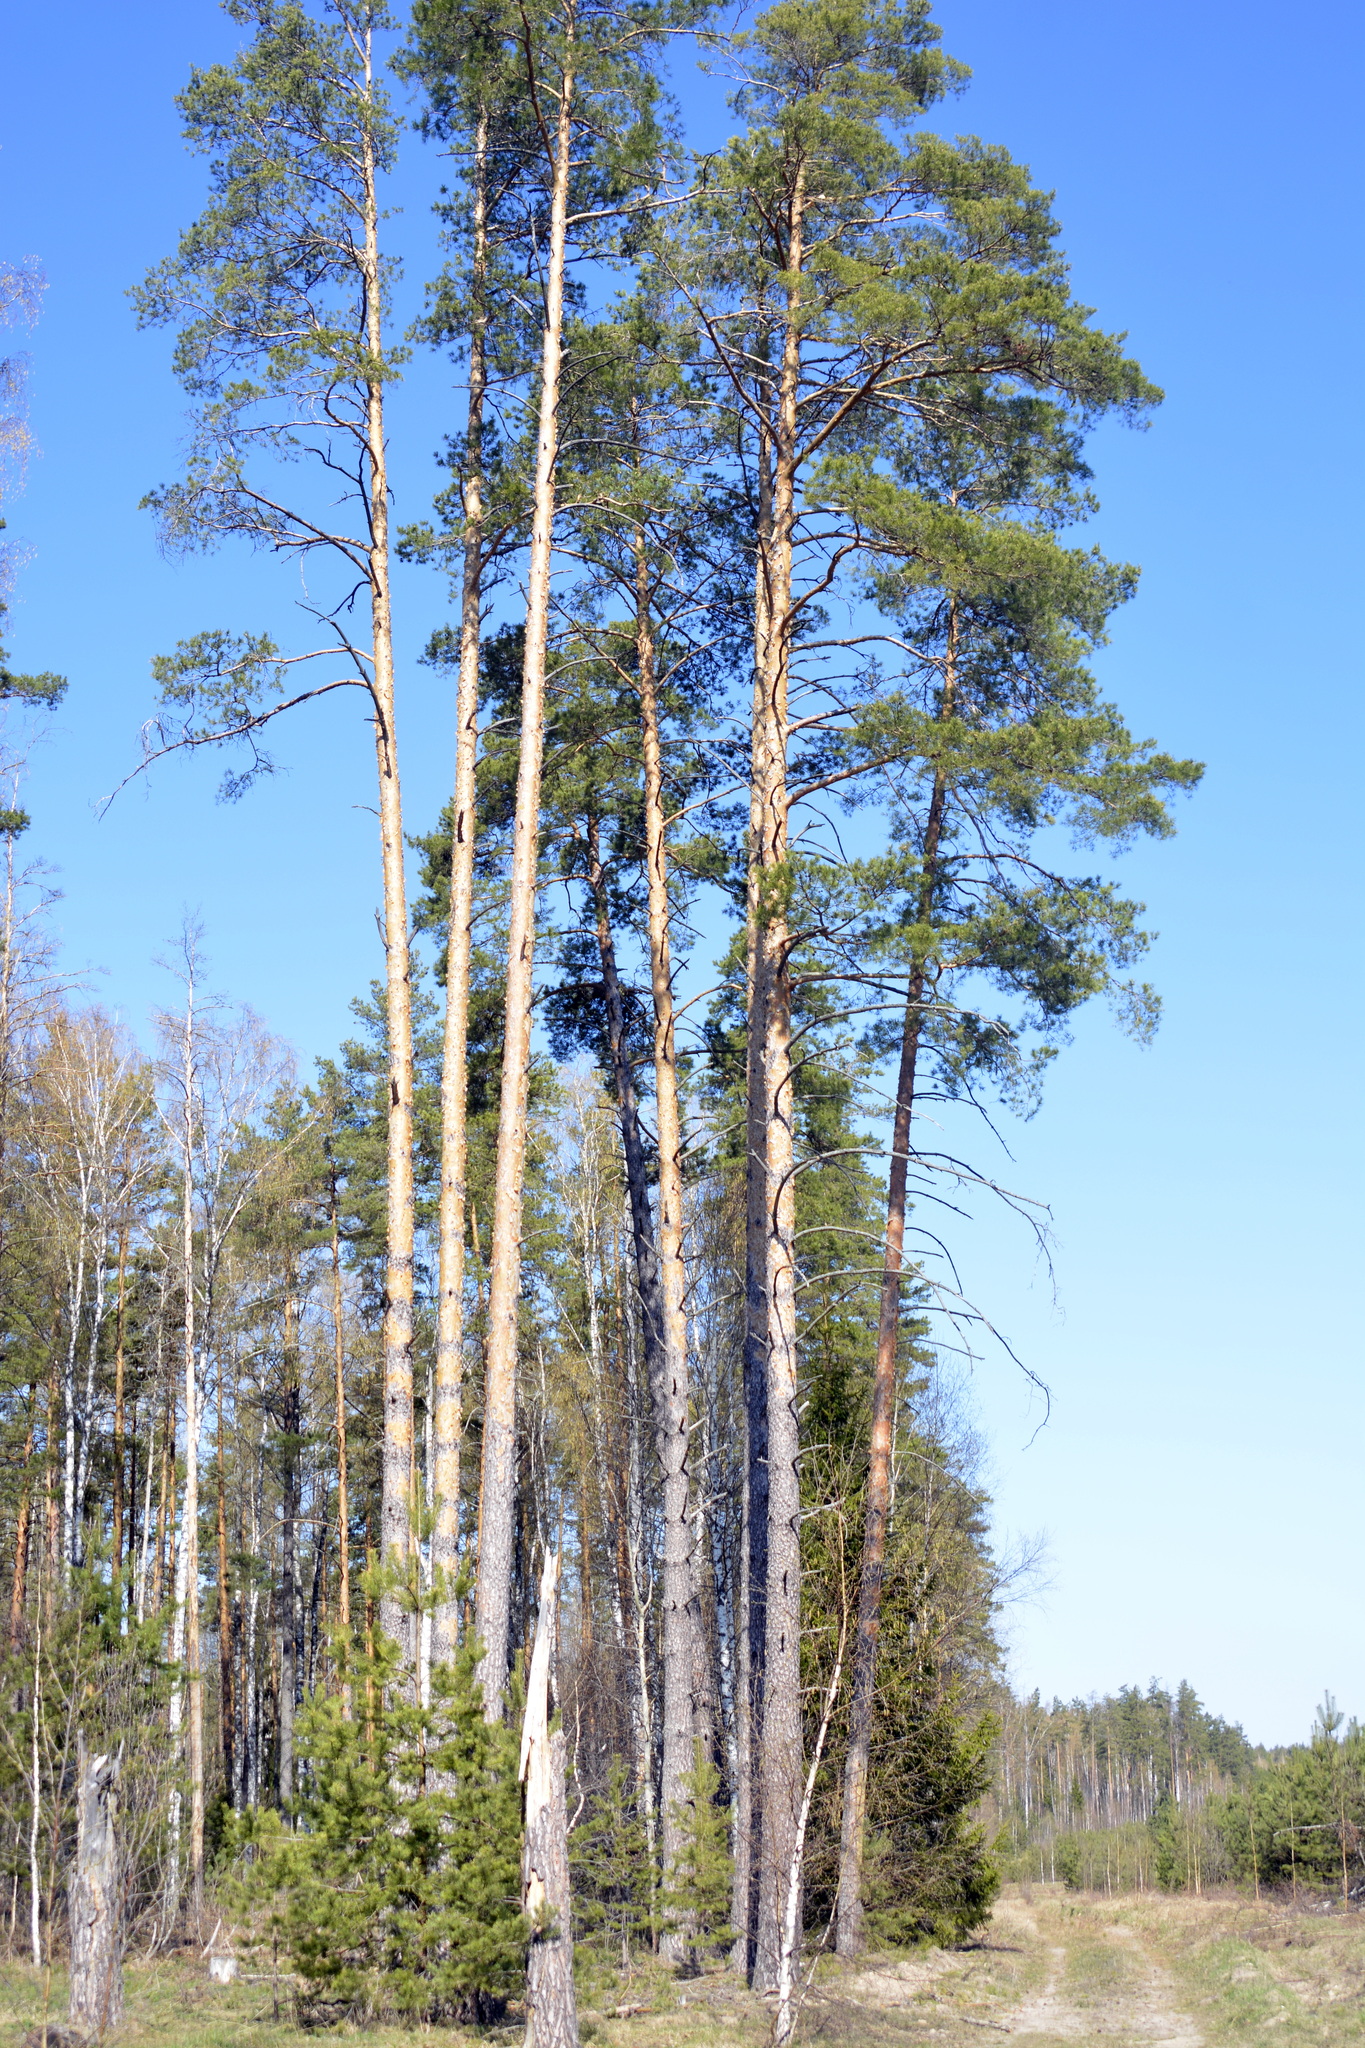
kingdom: Plantae
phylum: Tracheophyta
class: Pinopsida
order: Pinales
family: Pinaceae
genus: Pinus
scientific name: Pinus sylvestris
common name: Scots pine
